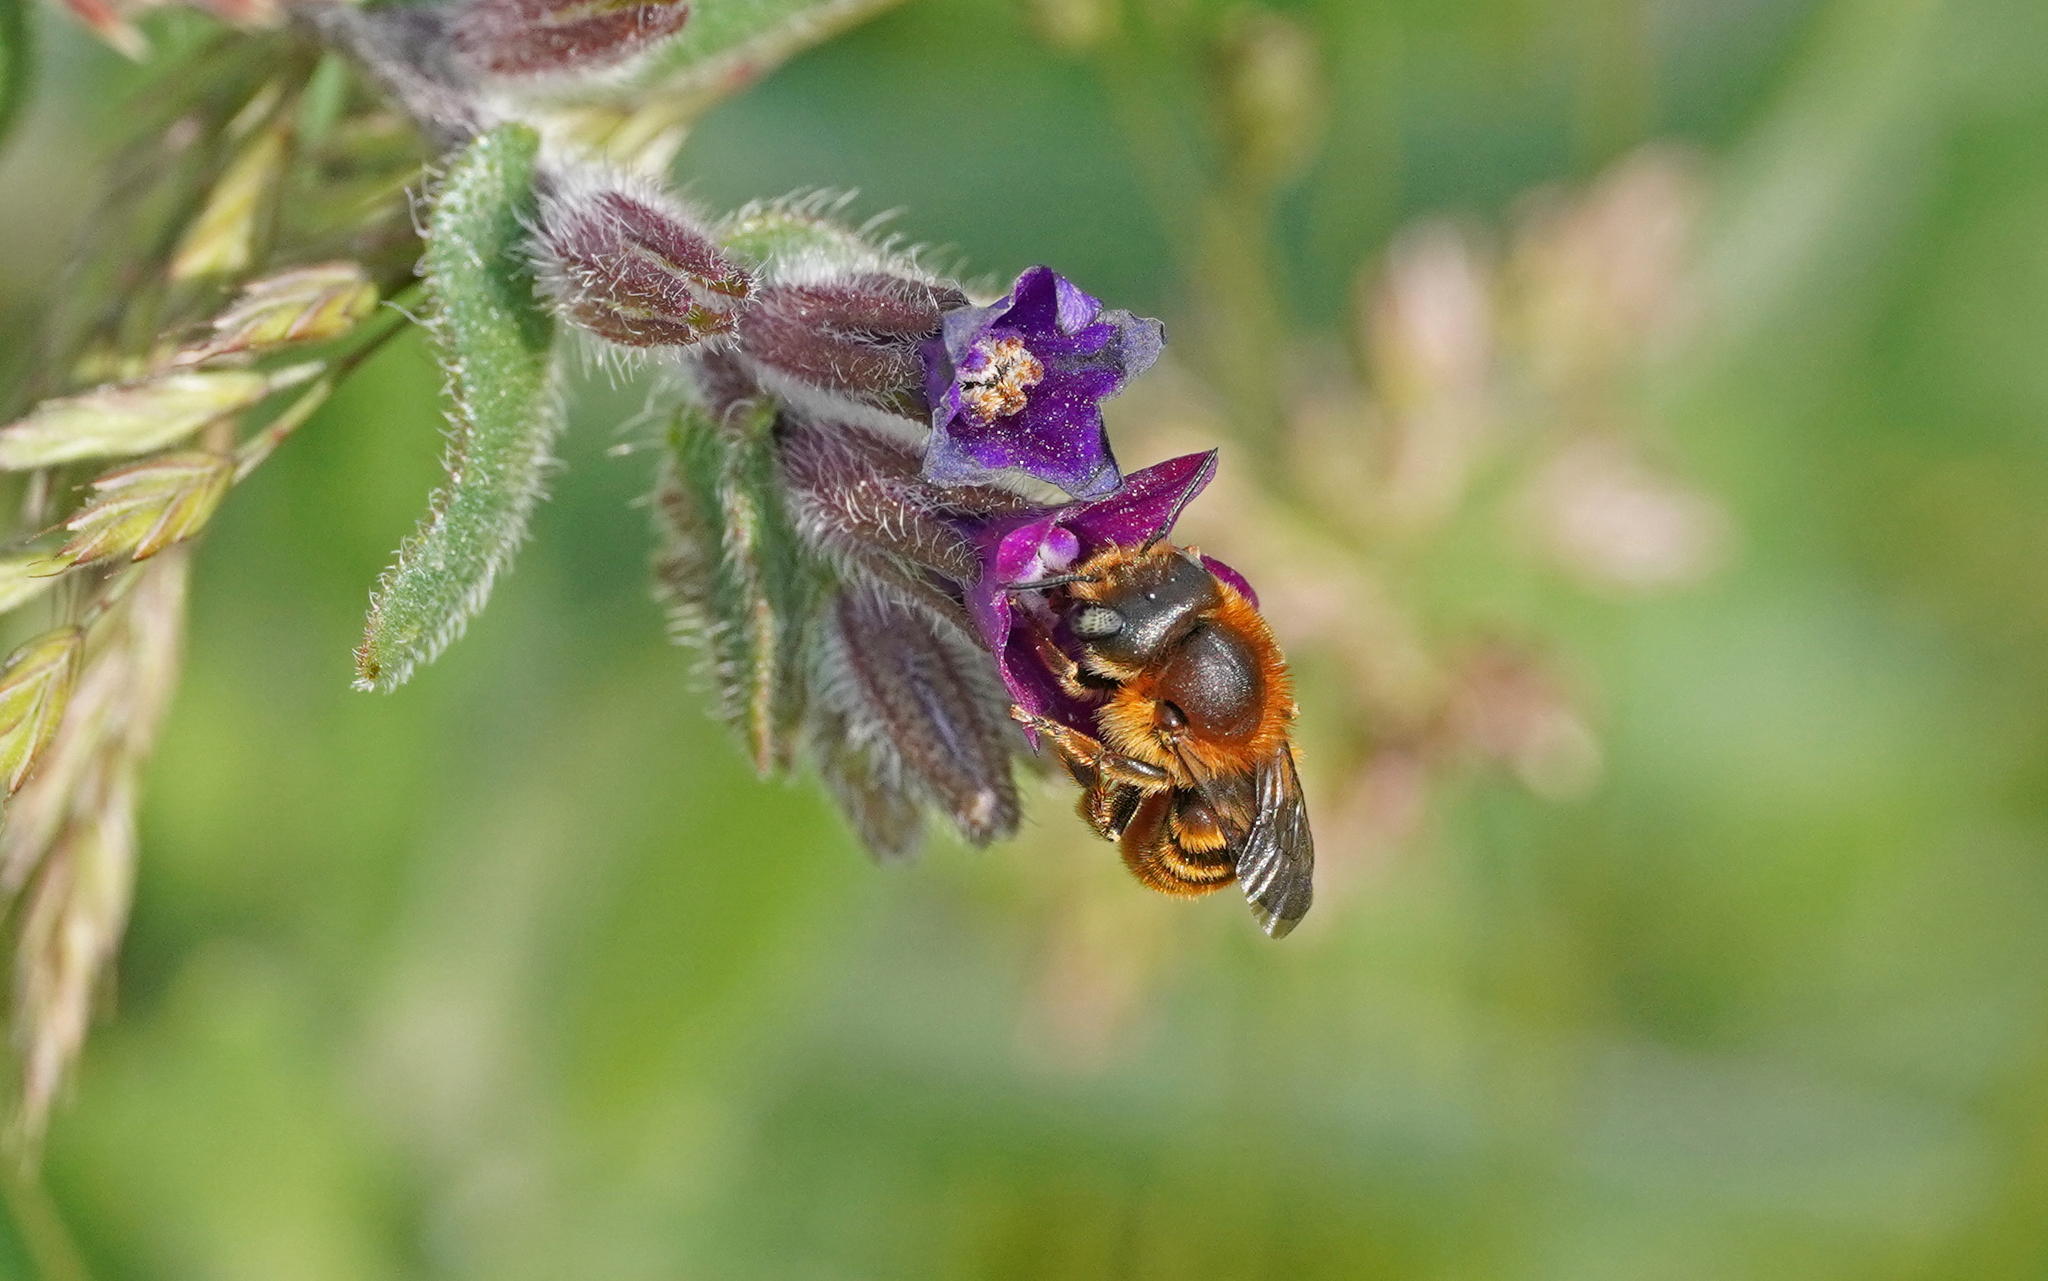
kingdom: Animalia
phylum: Arthropoda
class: Insecta
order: Hymenoptera
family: Megachilidae
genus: Osmia
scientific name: Osmia aurulenta
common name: Gold-fringed mason bee
